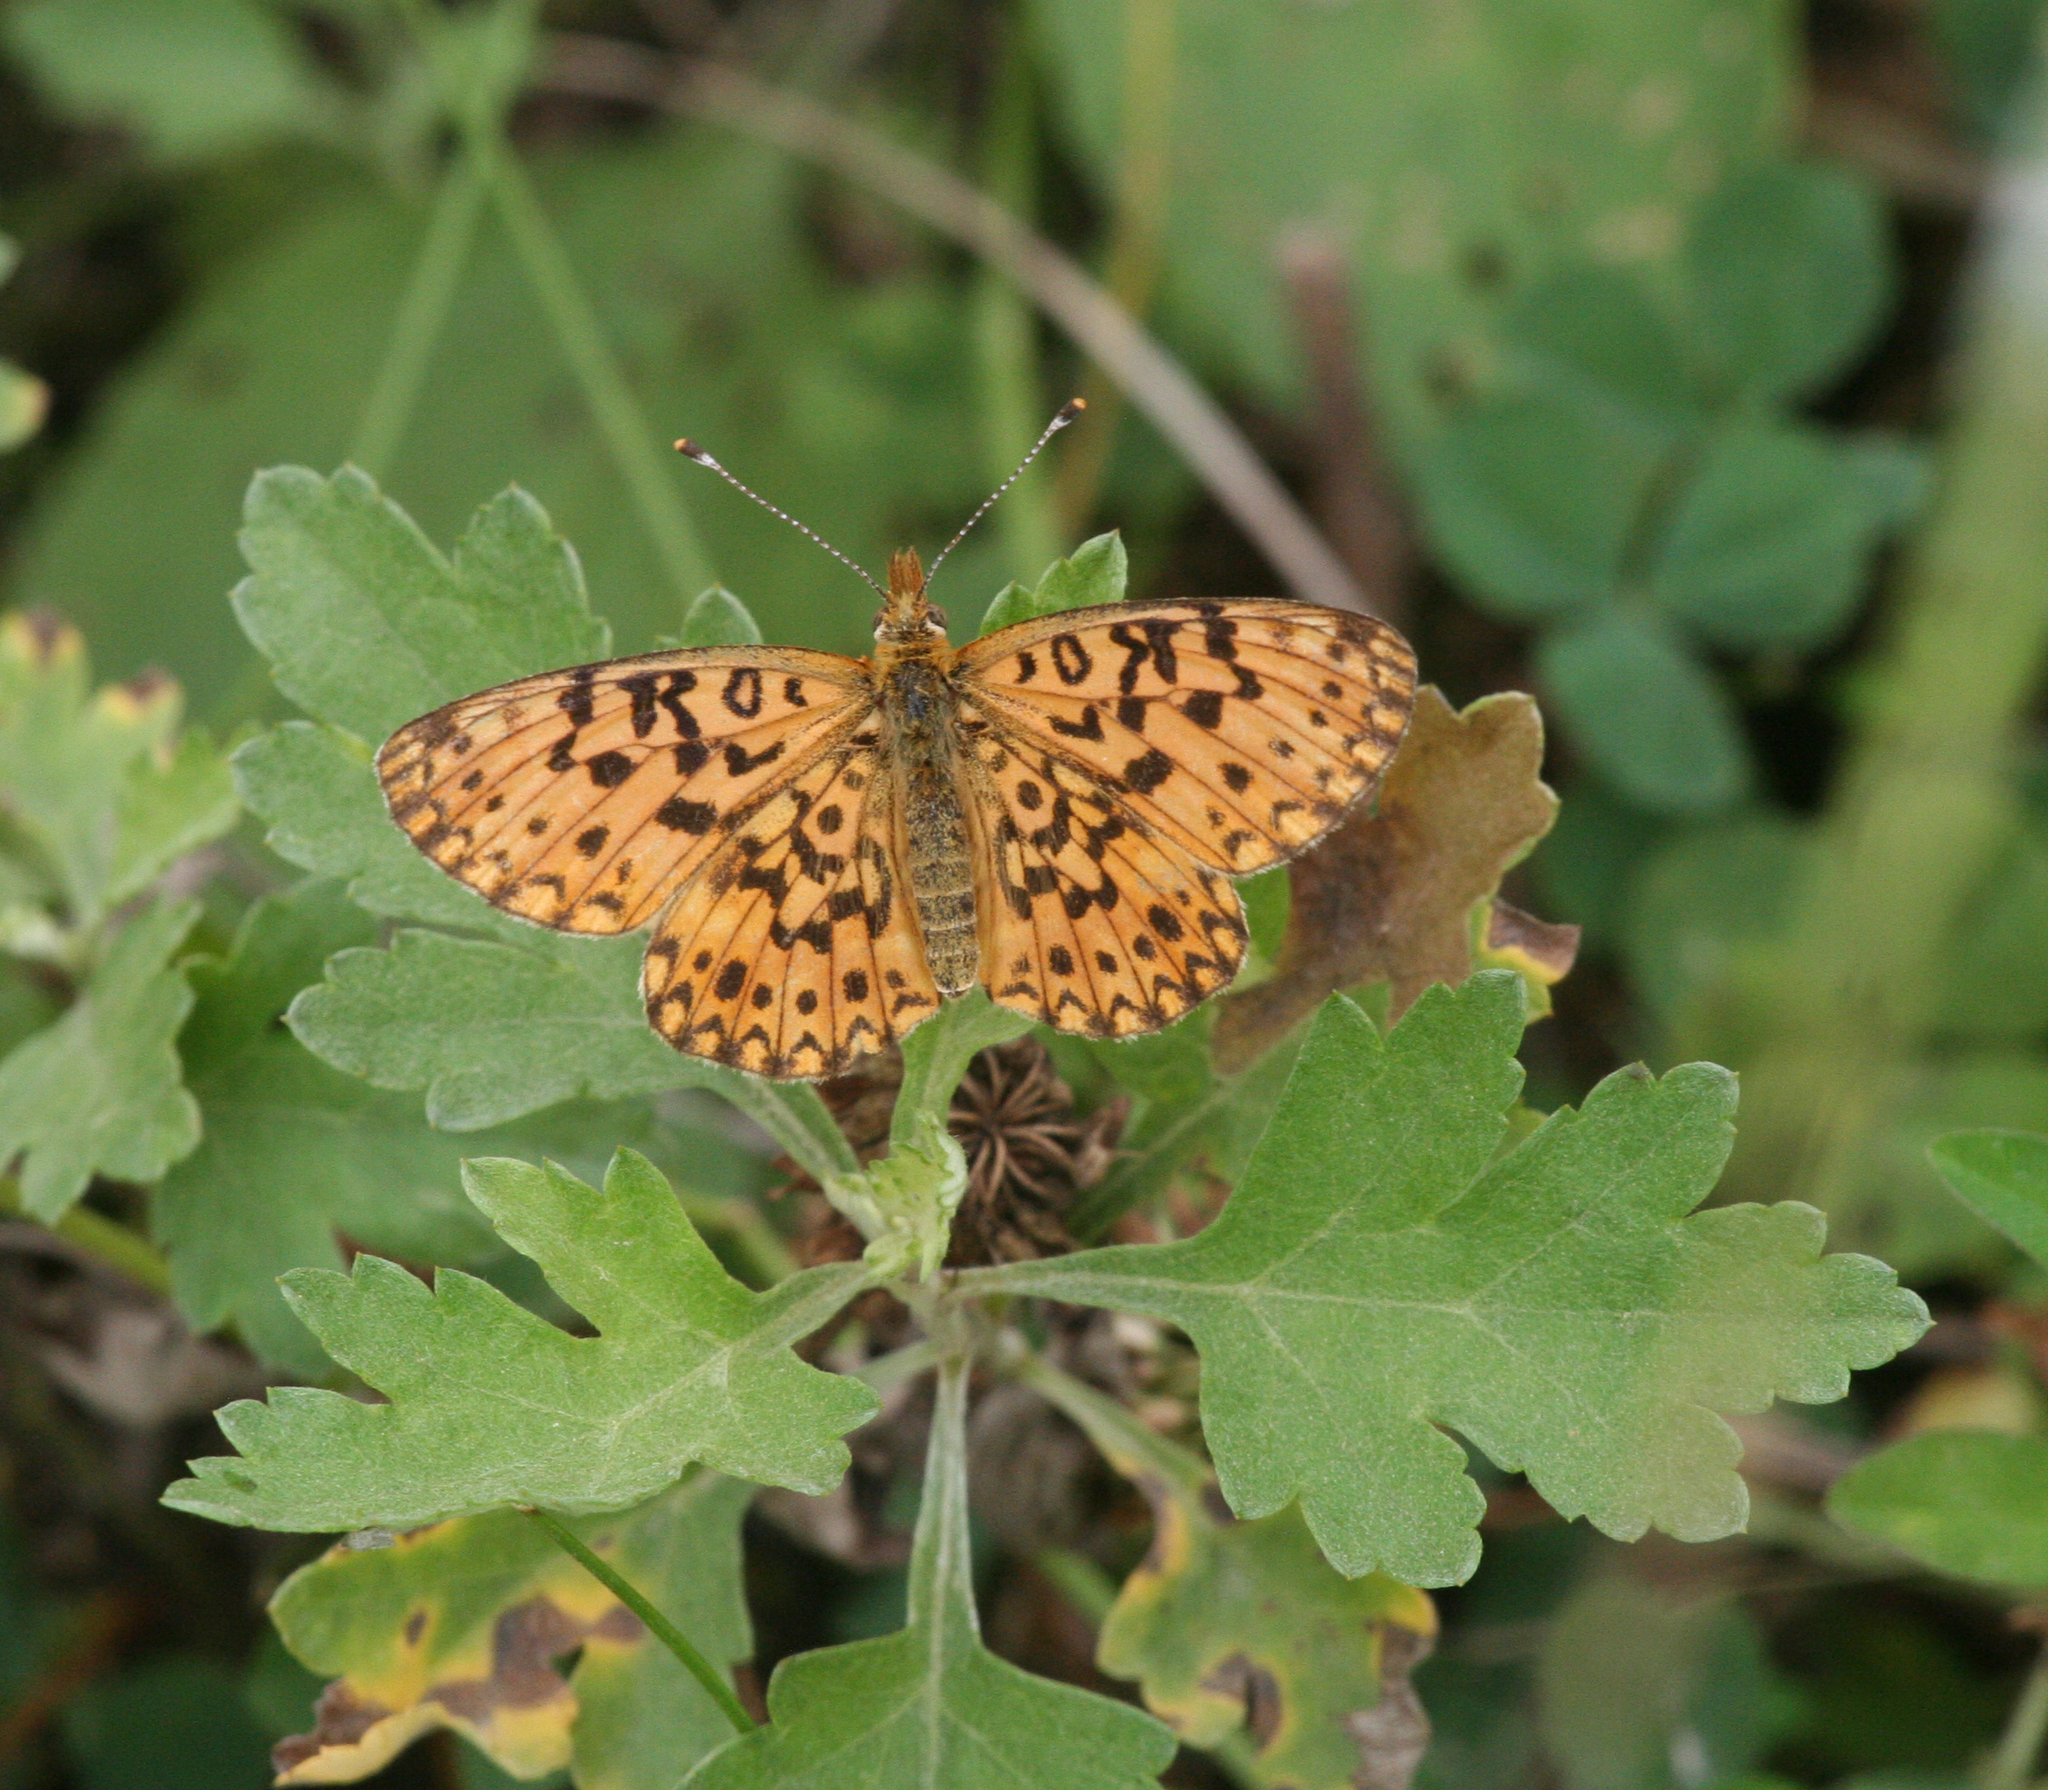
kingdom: Animalia
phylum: Arthropoda
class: Insecta
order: Lepidoptera
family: Nymphalidae
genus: Boloria
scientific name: Boloria perryi
